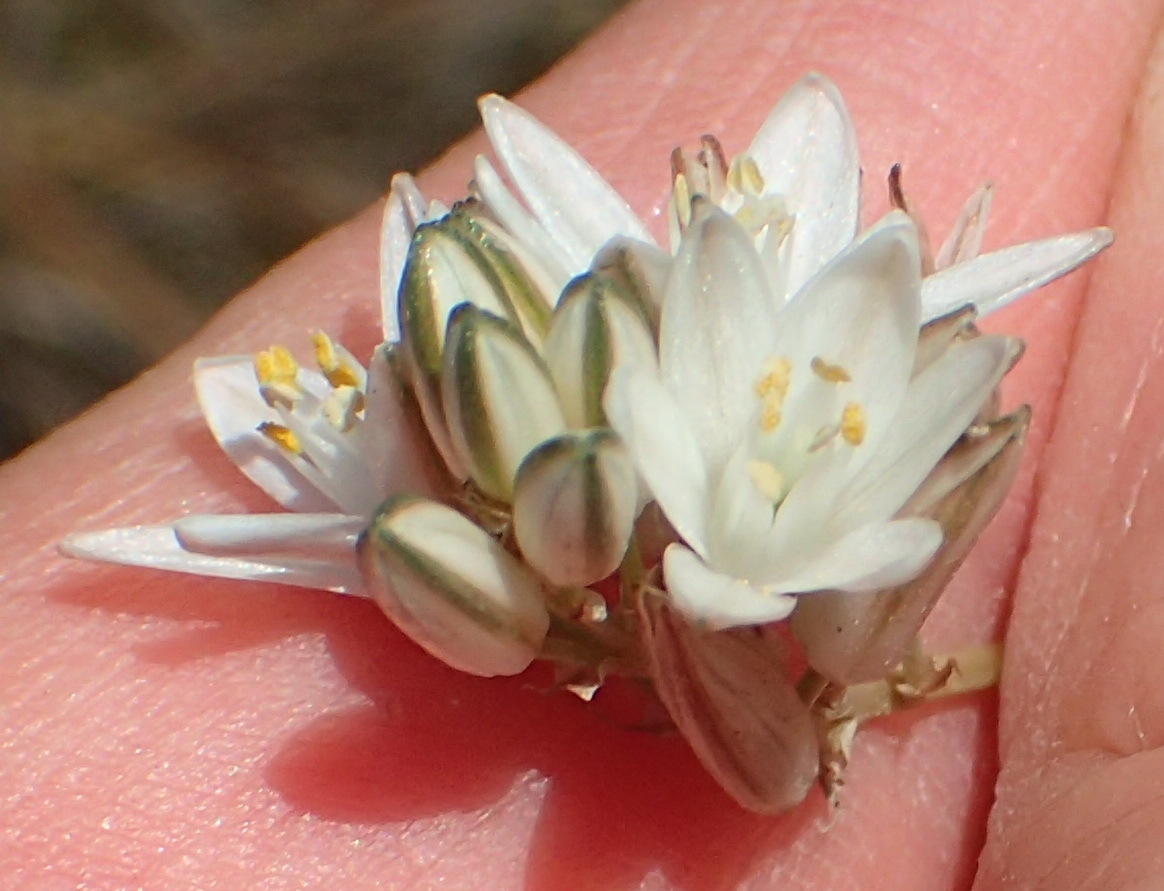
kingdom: Plantae
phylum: Tracheophyta
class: Liliopsida
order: Asparagales
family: Asparagaceae
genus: Ornithogalum
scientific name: Ornithogalum graminifolium
